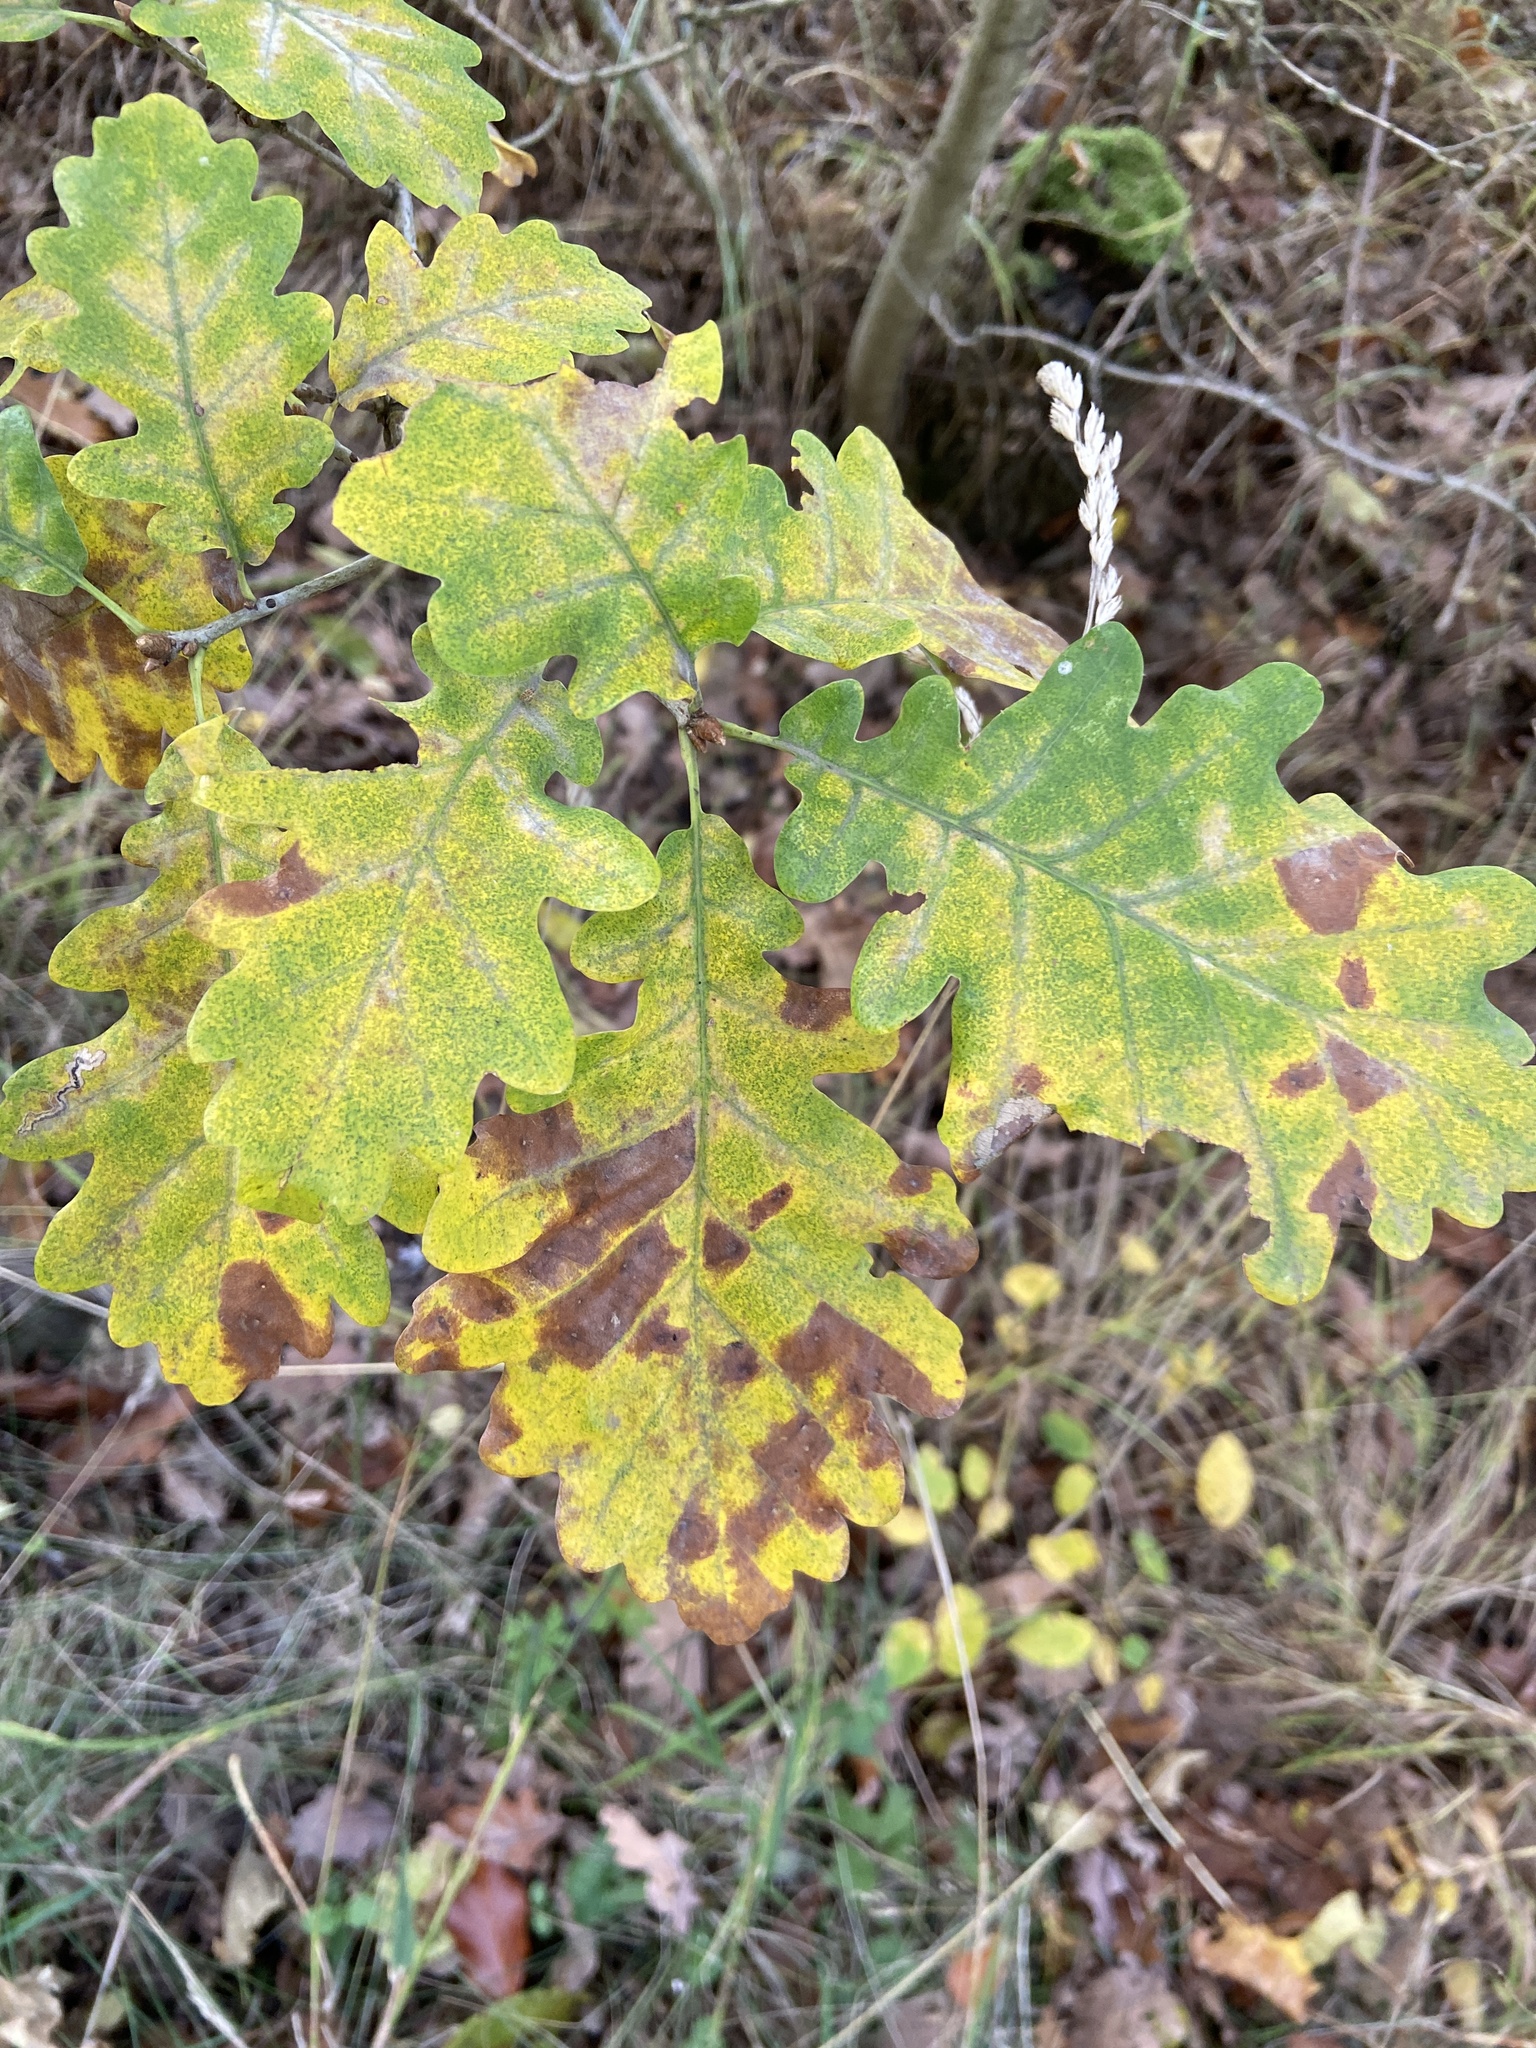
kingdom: Plantae
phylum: Tracheophyta
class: Magnoliopsida
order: Fagales
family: Fagaceae
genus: Quercus
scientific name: Quercus robur
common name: Pedunculate oak
